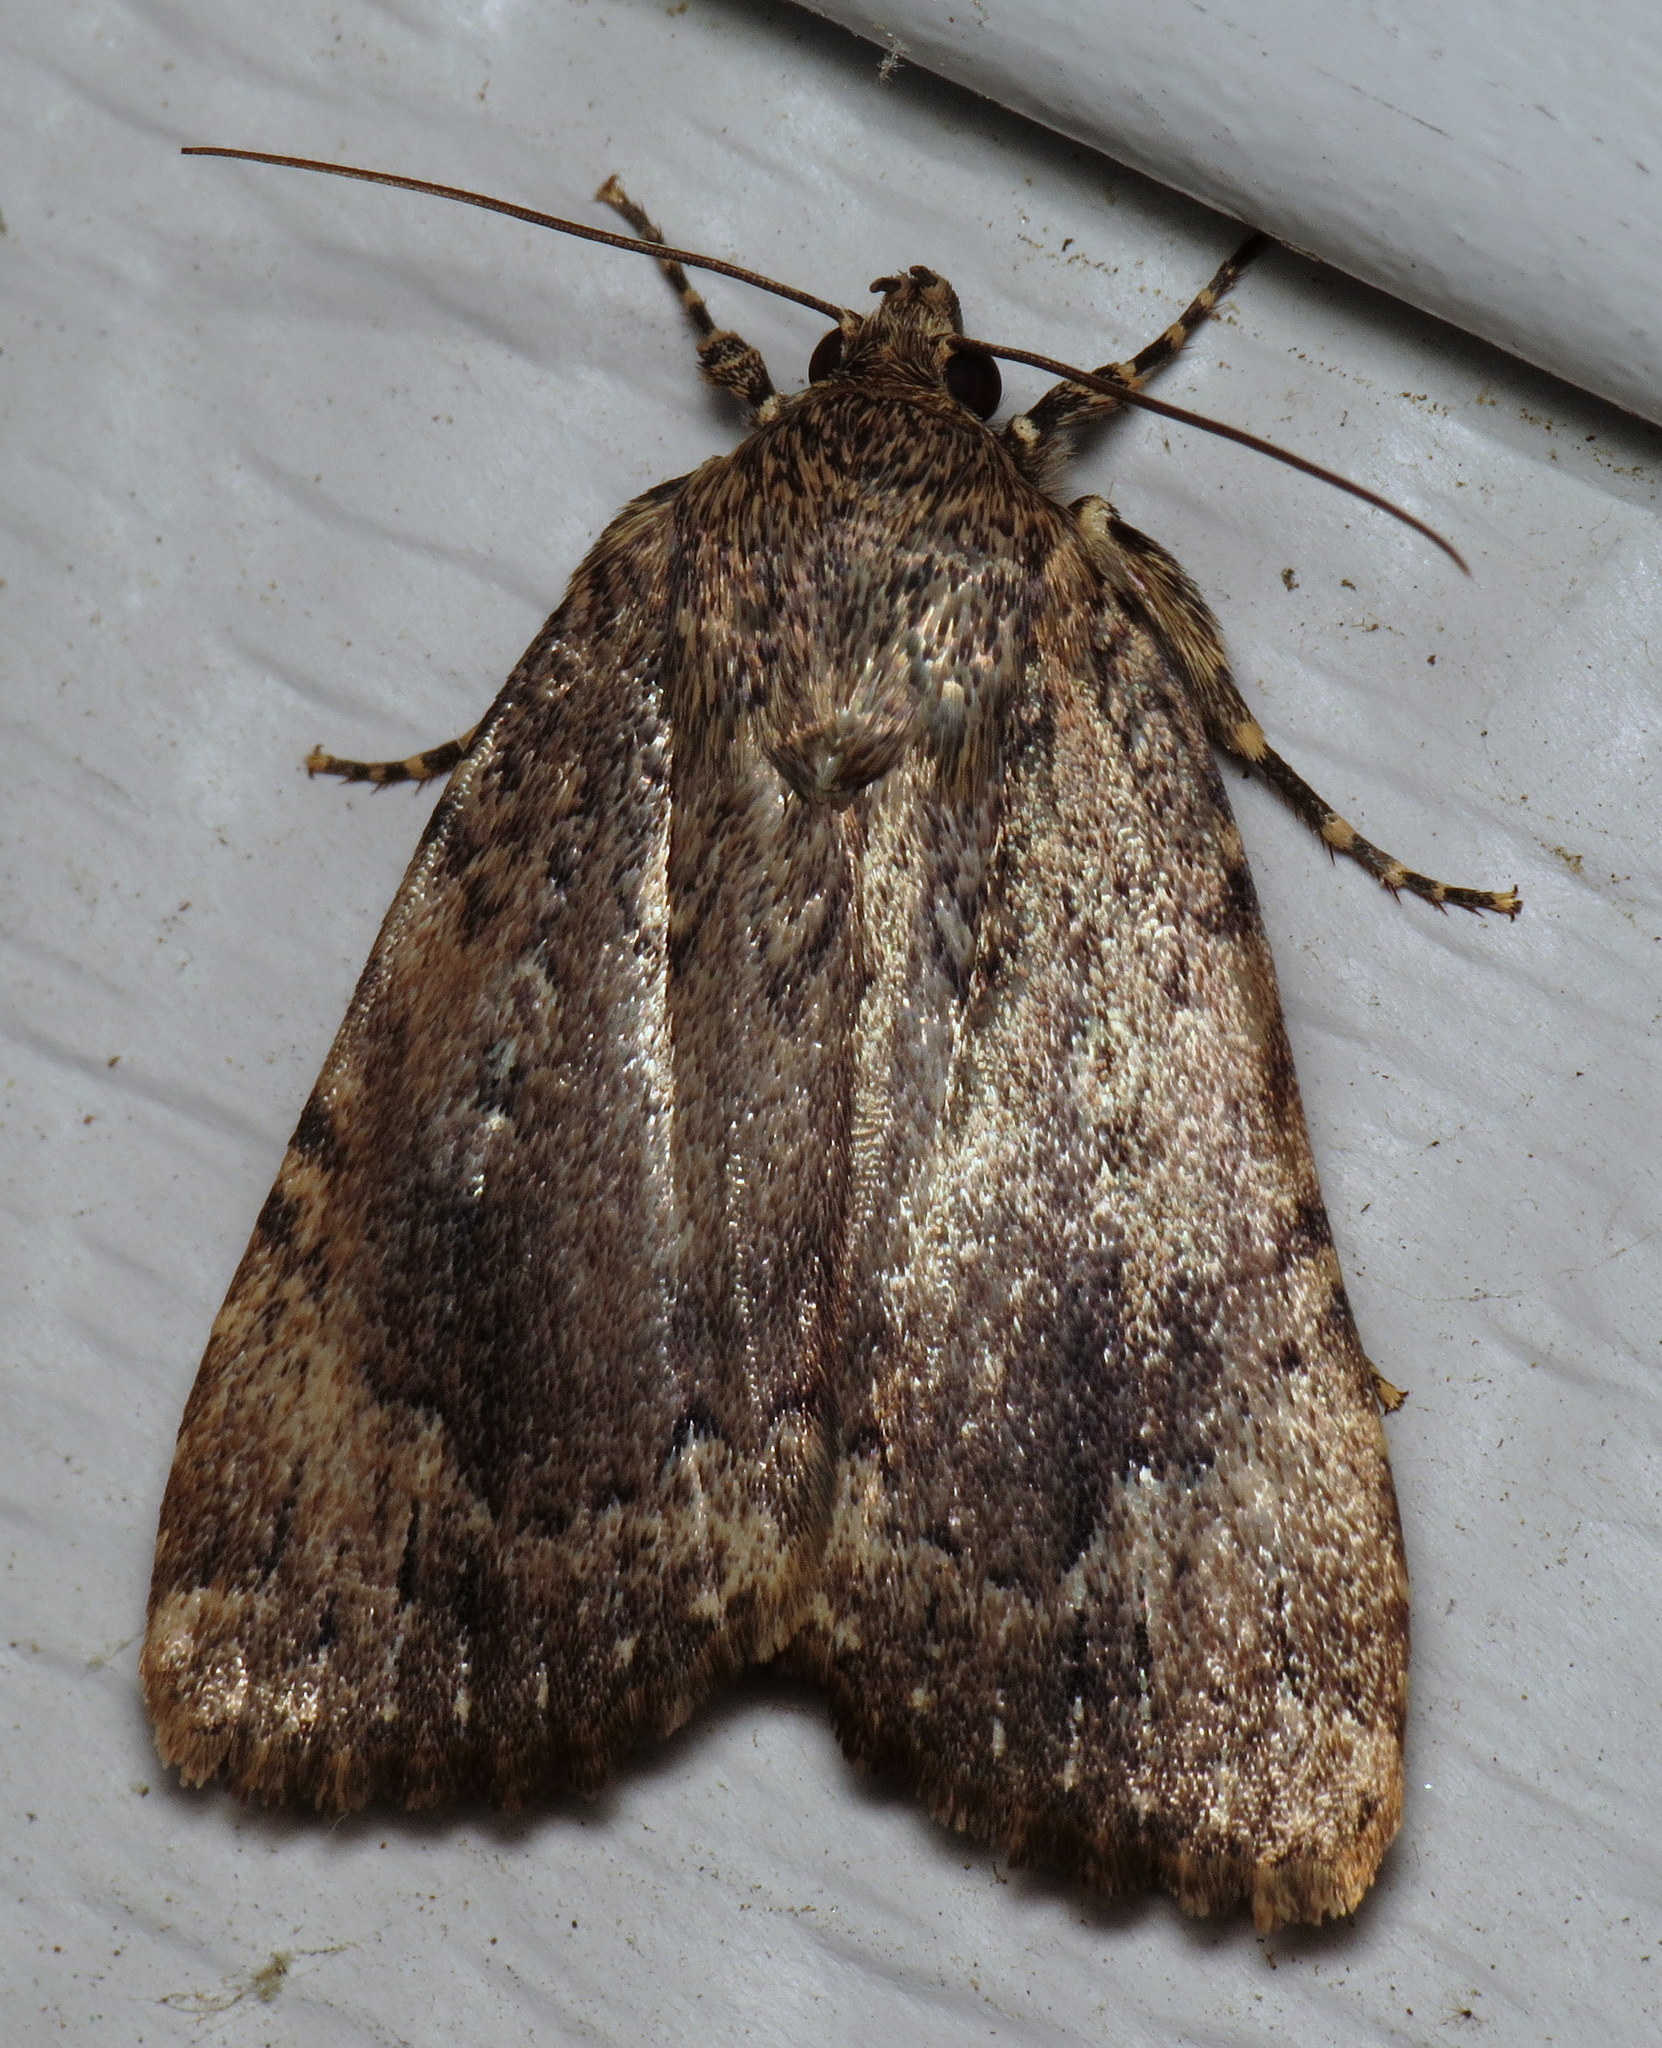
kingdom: Animalia
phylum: Arthropoda
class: Insecta
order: Lepidoptera
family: Noctuidae
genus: Amphipyra
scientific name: Amphipyra pyramidoides
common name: American copper underwing
